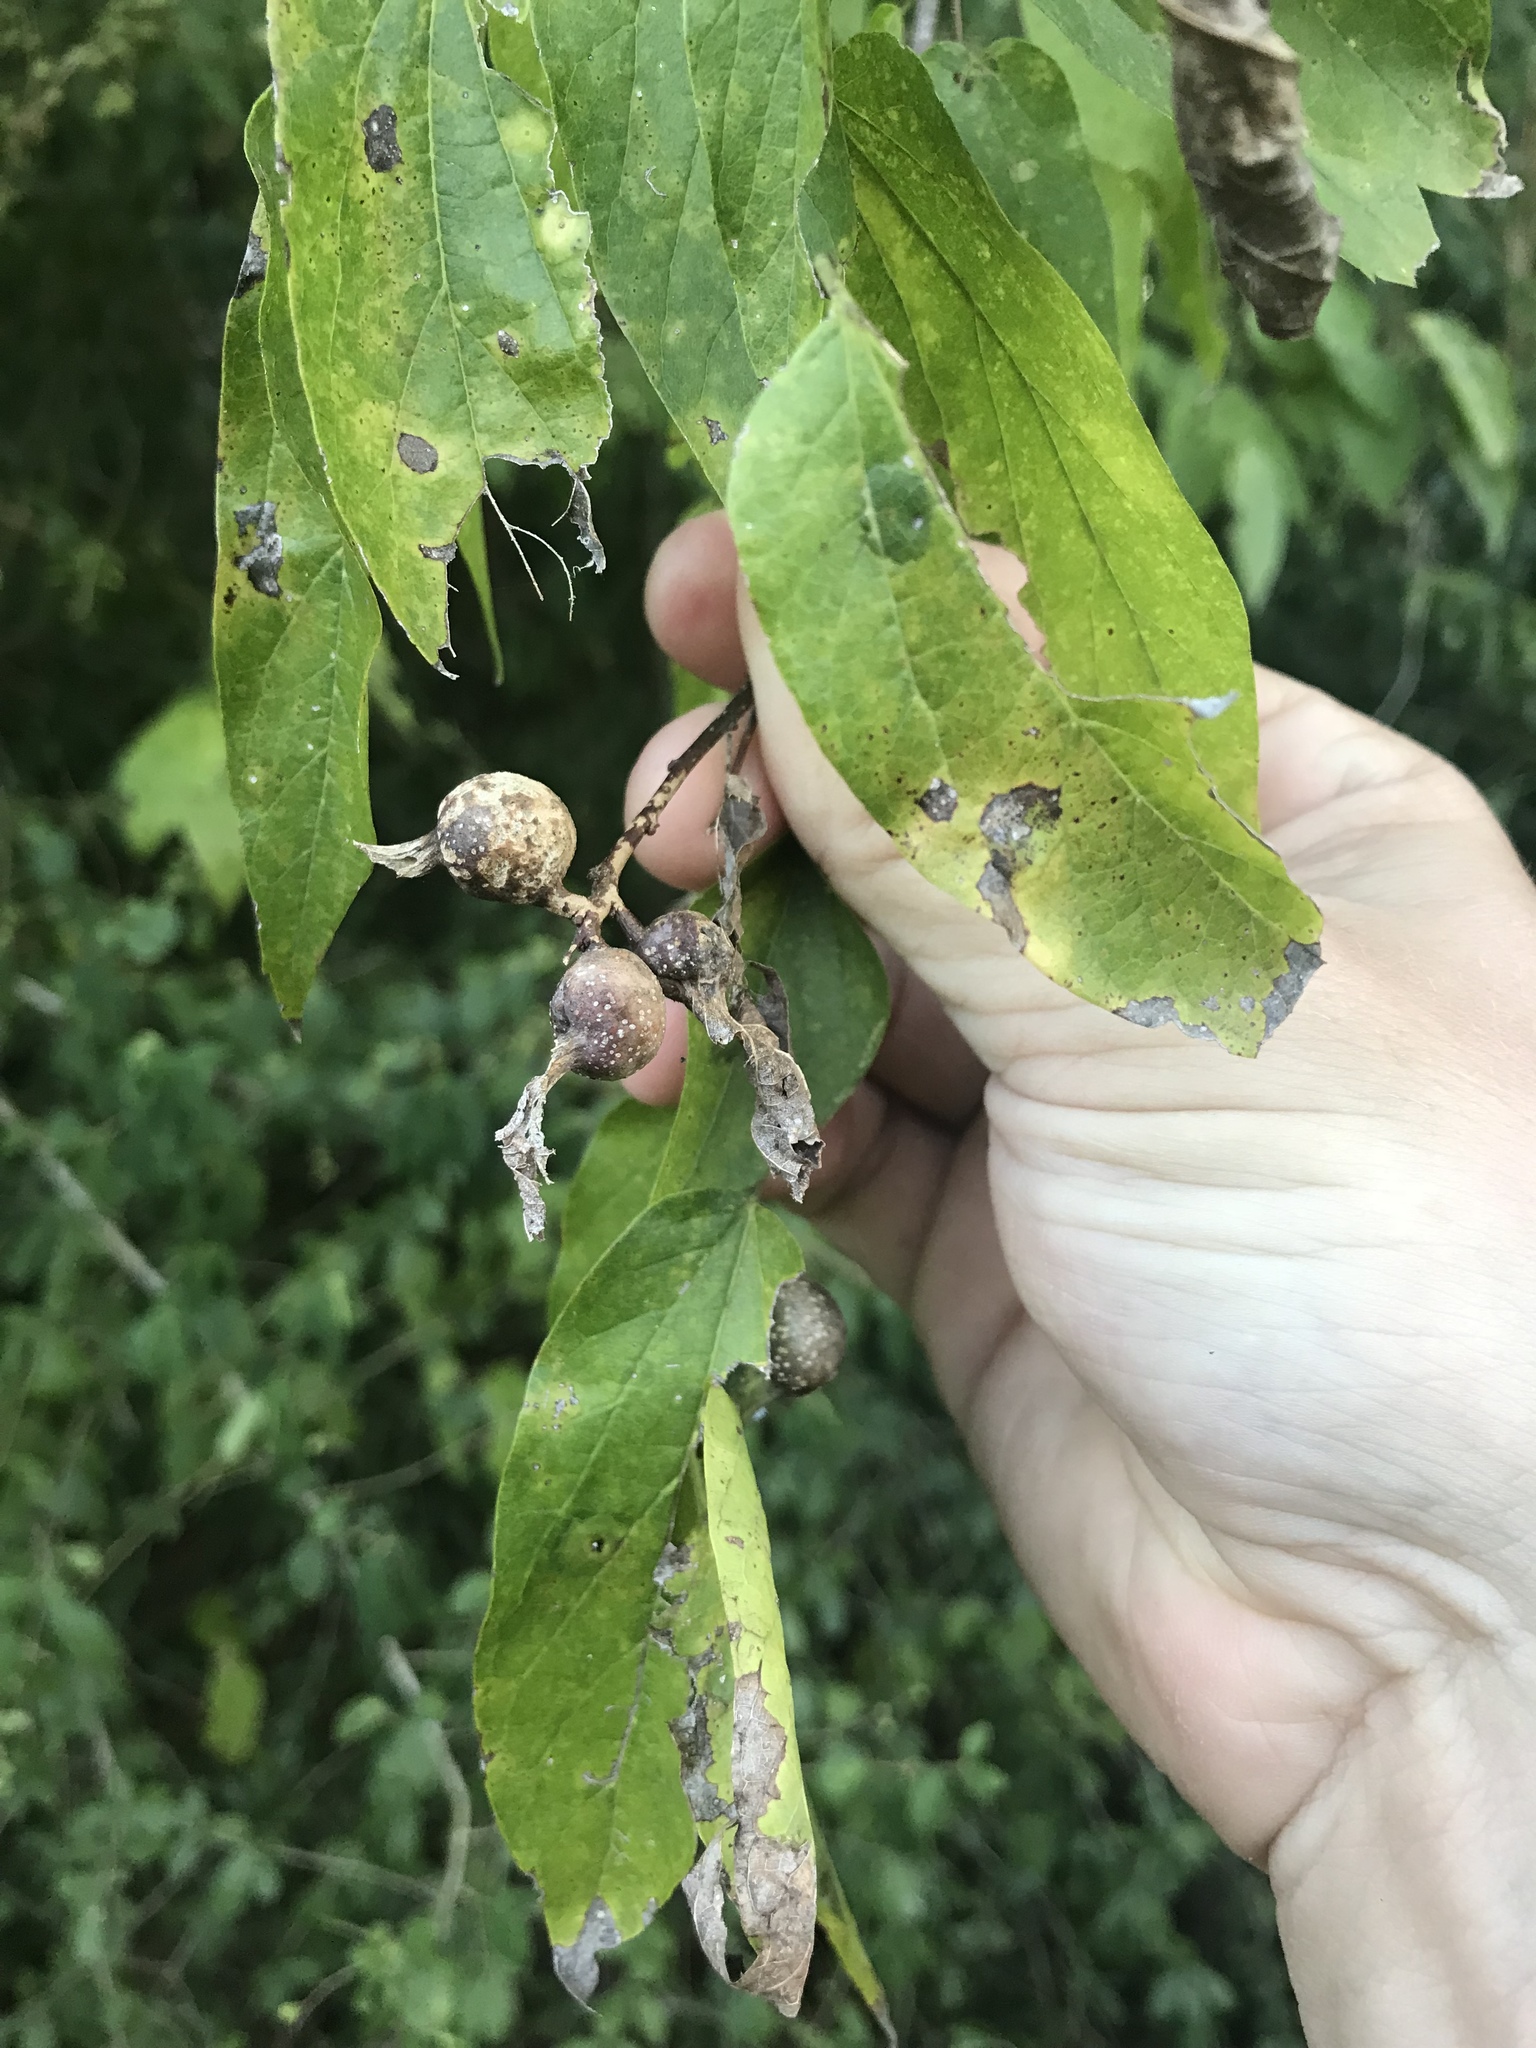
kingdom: Animalia
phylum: Arthropoda
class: Insecta
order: Hemiptera
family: Aphalaridae
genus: Pachypsylla
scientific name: Pachypsylla venusta
